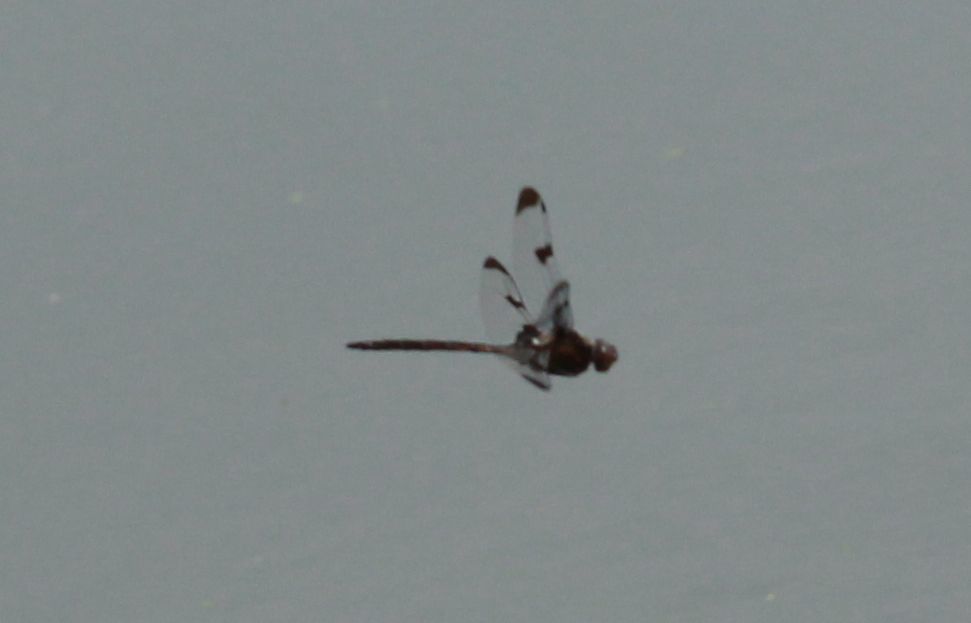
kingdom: Animalia
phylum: Arthropoda
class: Insecta
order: Odonata
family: Corduliidae
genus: Epitheca
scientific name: Epitheca princeps
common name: Prince baskettail
